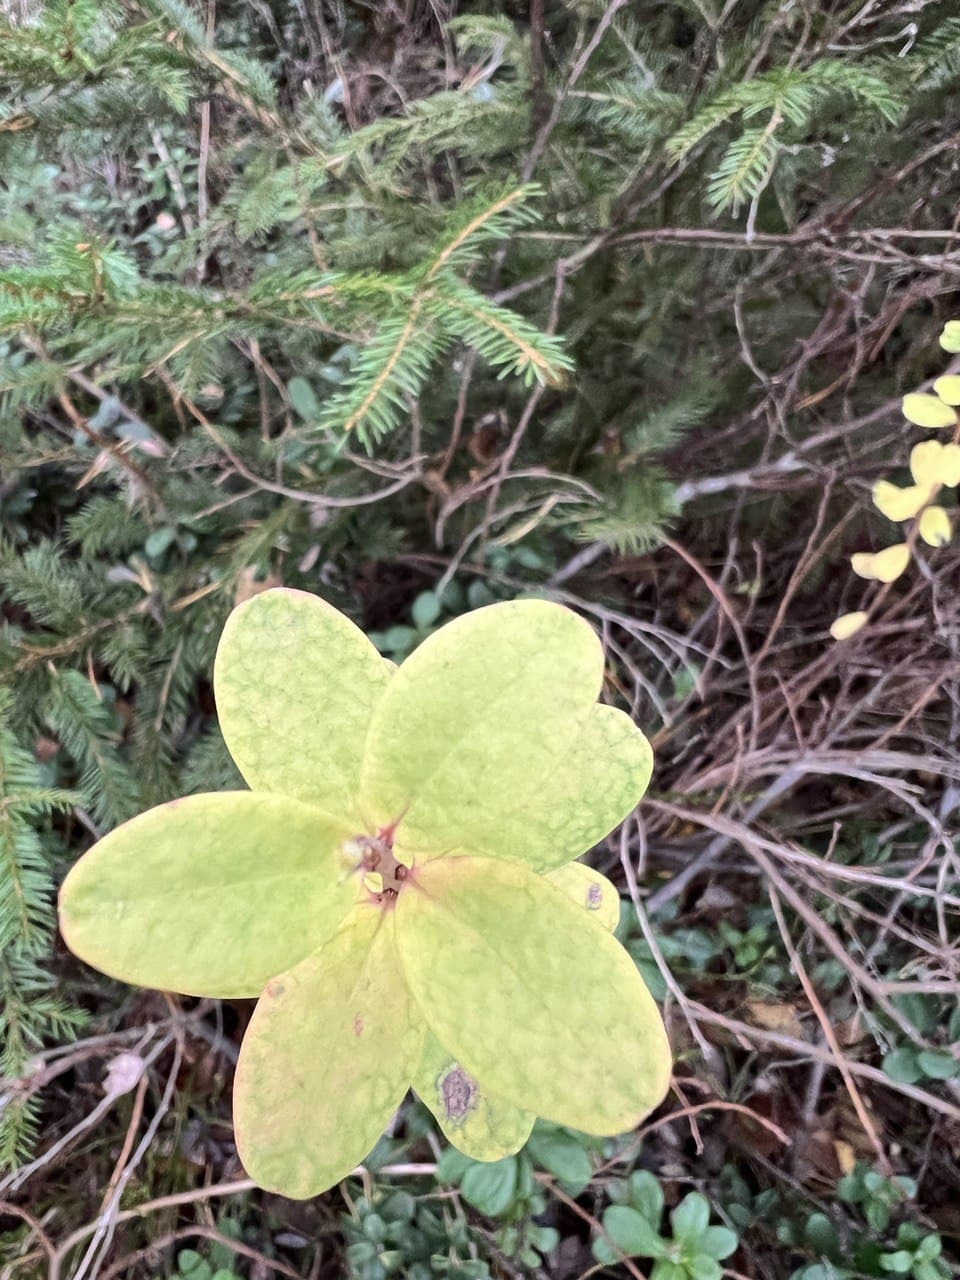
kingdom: Plantae
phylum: Tracheophyta
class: Magnoliopsida
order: Ericales
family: Ericaceae
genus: Vaccinium
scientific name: Vaccinium uliginosum
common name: Bog bilberry
